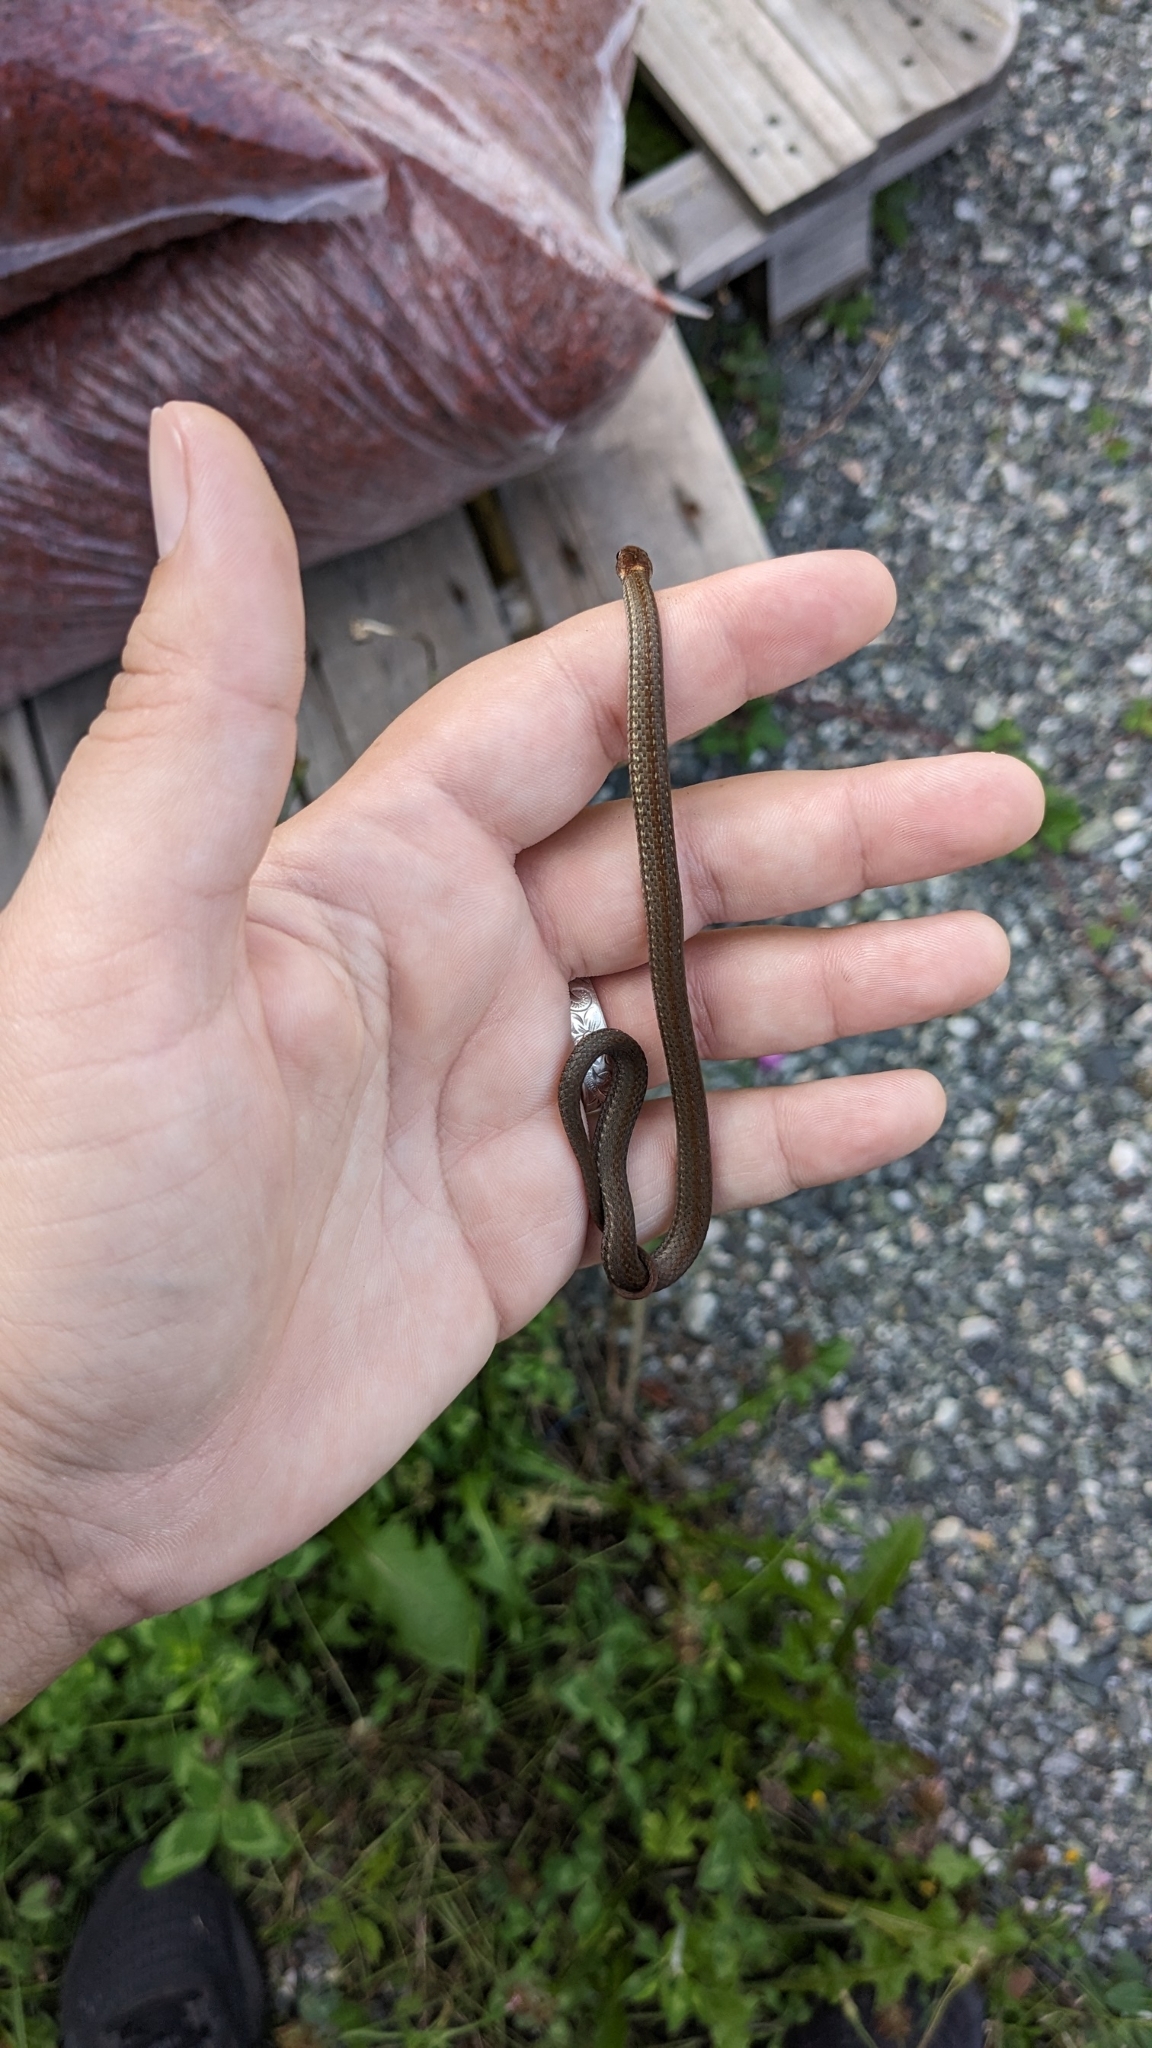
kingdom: Animalia
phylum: Chordata
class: Squamata
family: Colubridae
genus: Storeria
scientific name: Storeria occipitomaculata
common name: Redbelly snake
